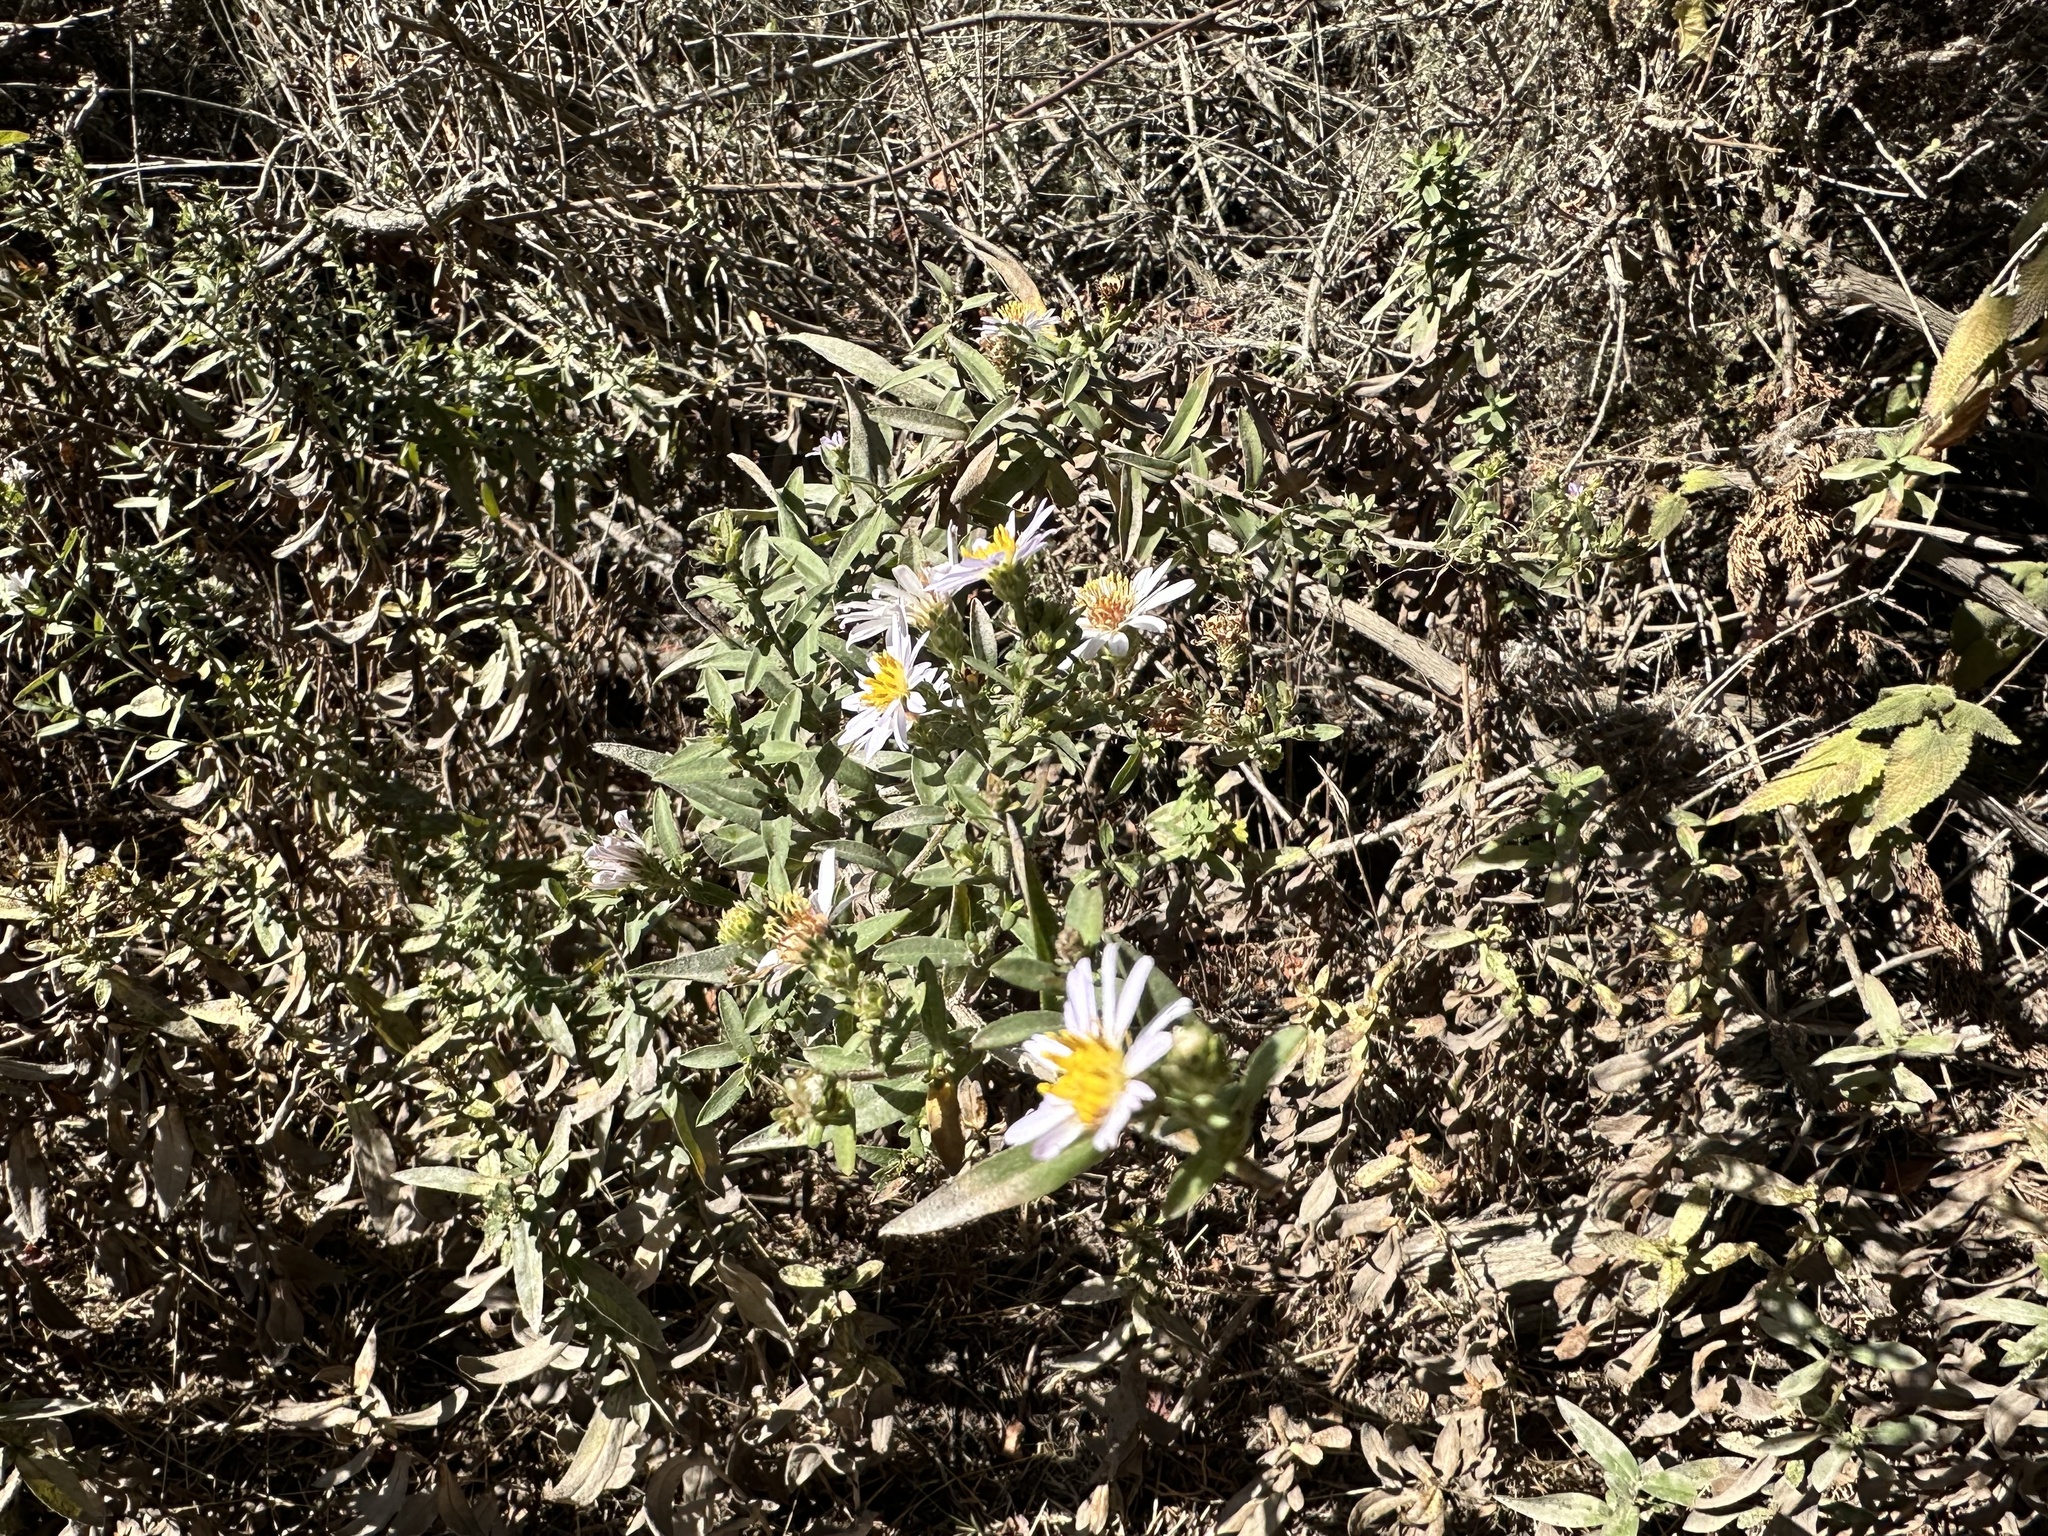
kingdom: Plantae
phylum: Tracheophyta
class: Magnoliopsida
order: Asterales
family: Asteraceae
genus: Symphyotrichum
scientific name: Symphyotrichum chilense
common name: Pacific aster
